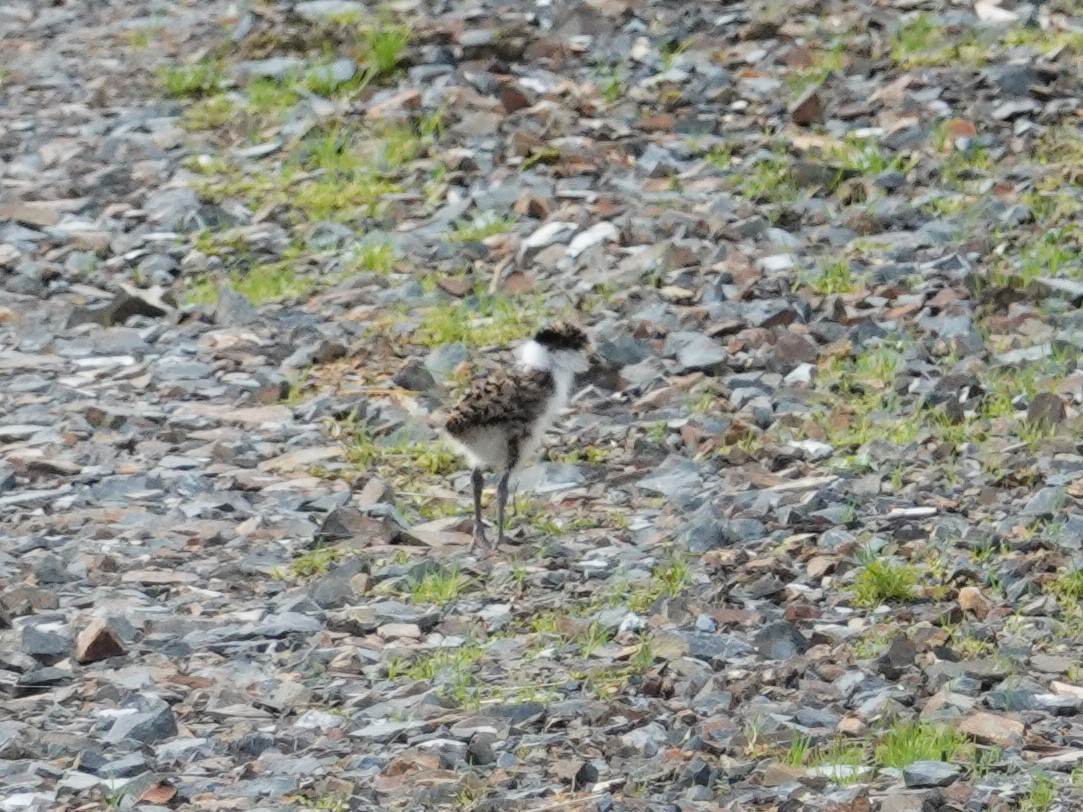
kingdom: Animalia
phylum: Chordata
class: Aves
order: Charadriiformes
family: Charadriidae
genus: Vanellus
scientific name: Vanellus miles
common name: Masked lapwing
